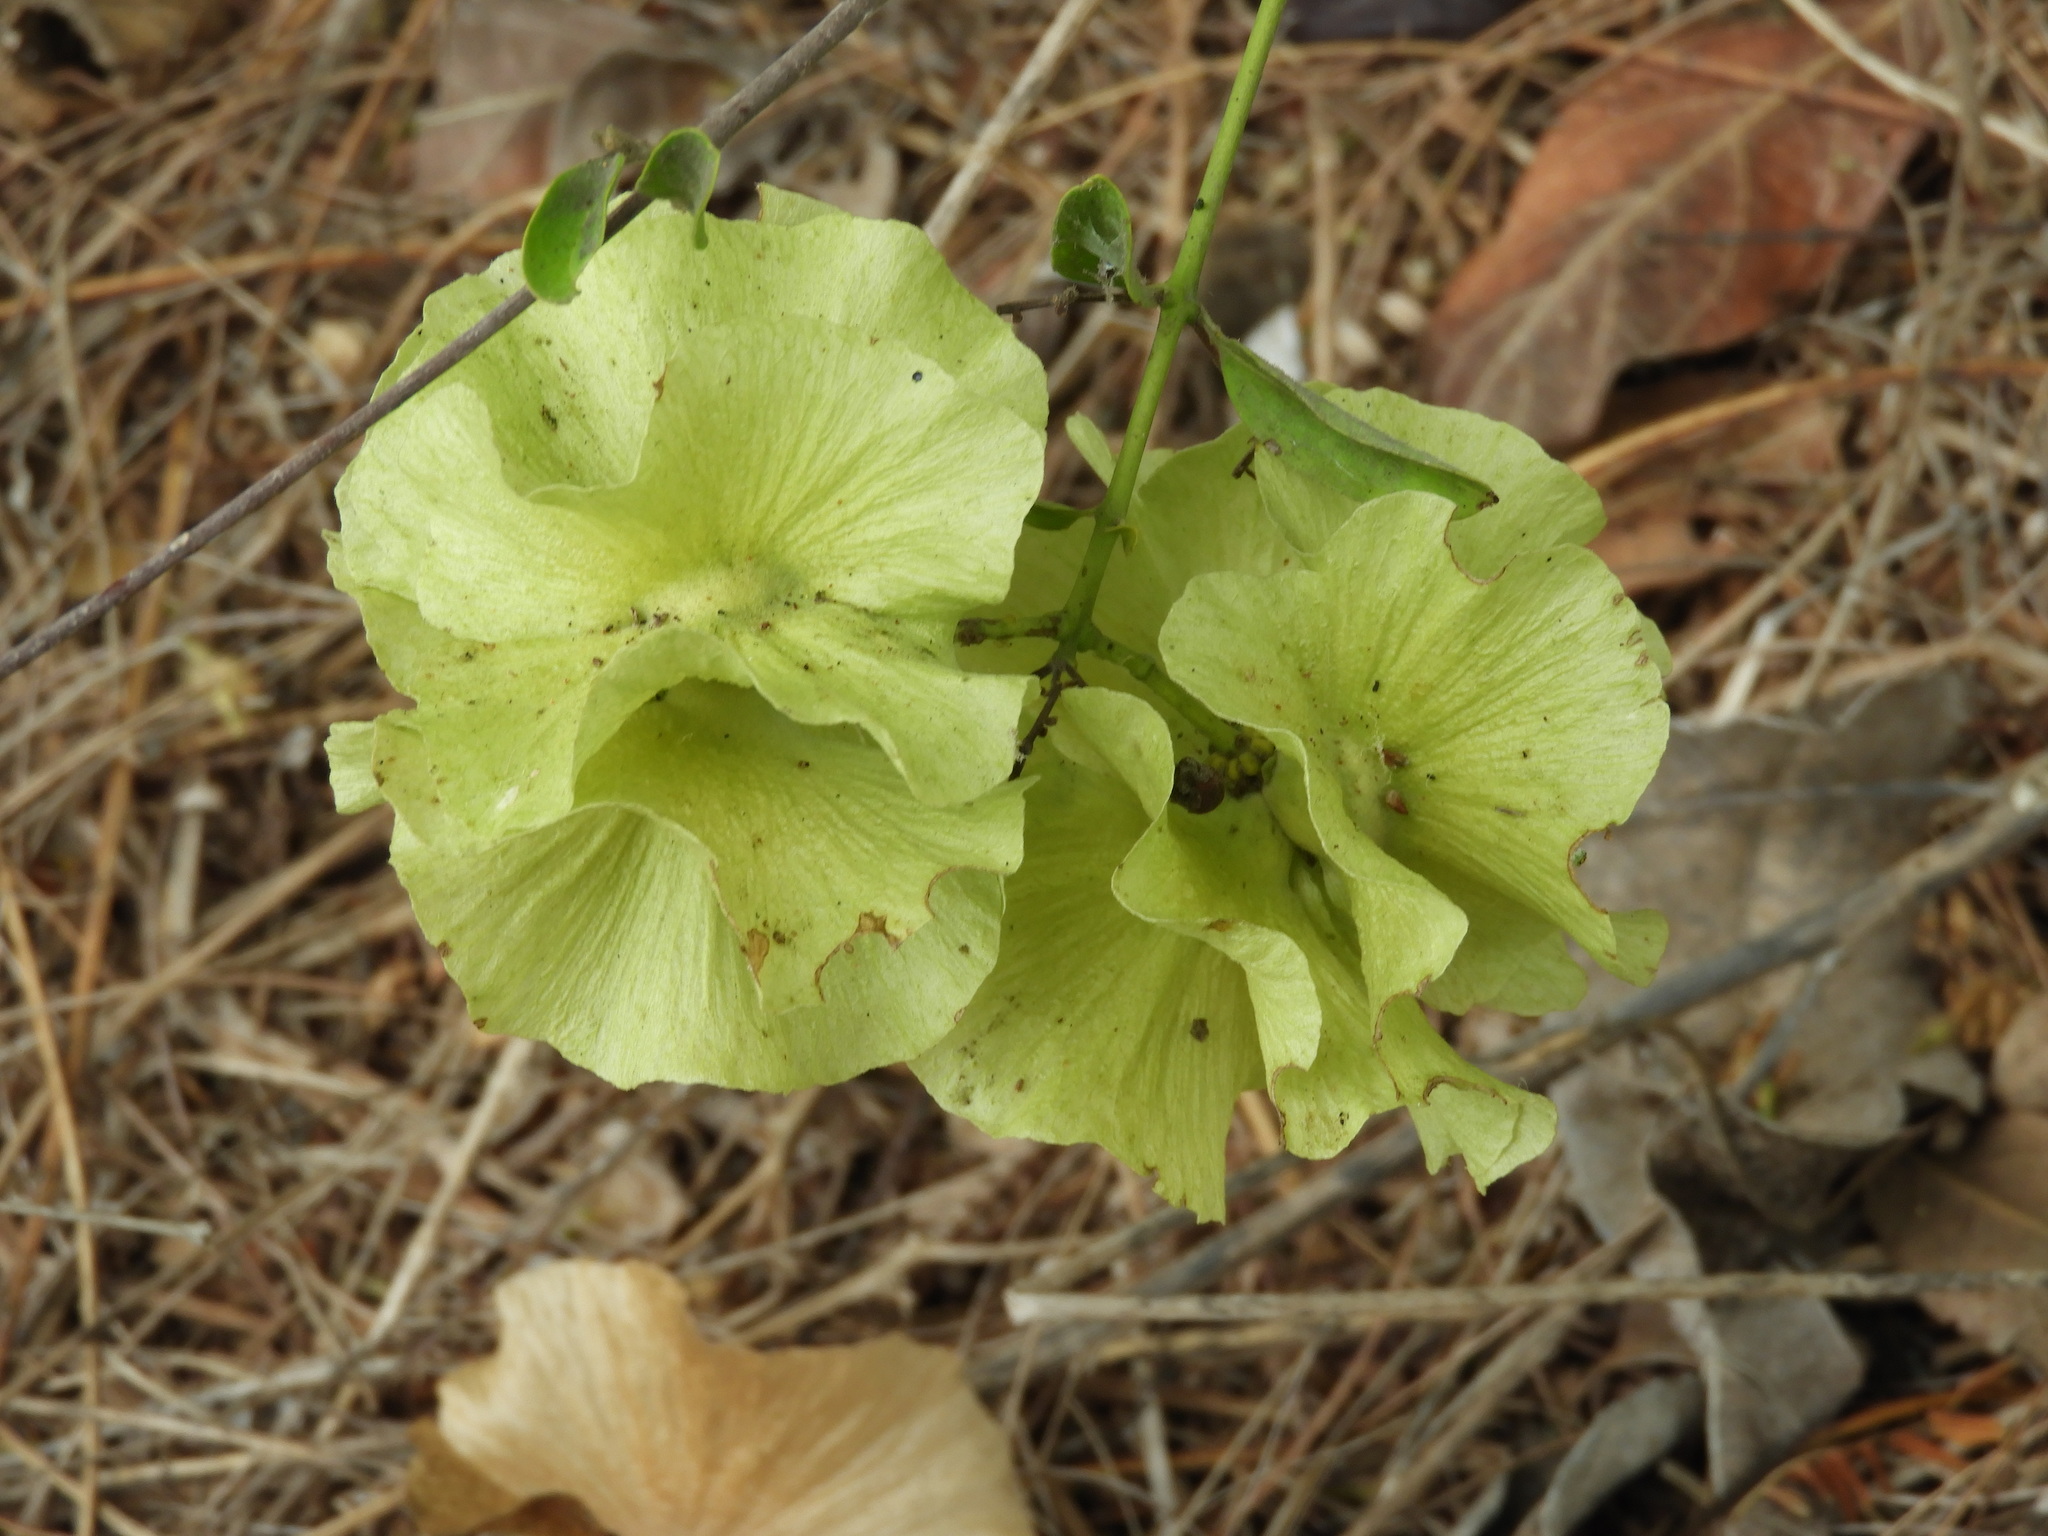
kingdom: Plantae
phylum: Tracheophyta
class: Magnoliopsida
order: Malpighiales
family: Malpighiaceae
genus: Callaeum
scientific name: Callaeum macropterum
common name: Mexican butterfly-vine
